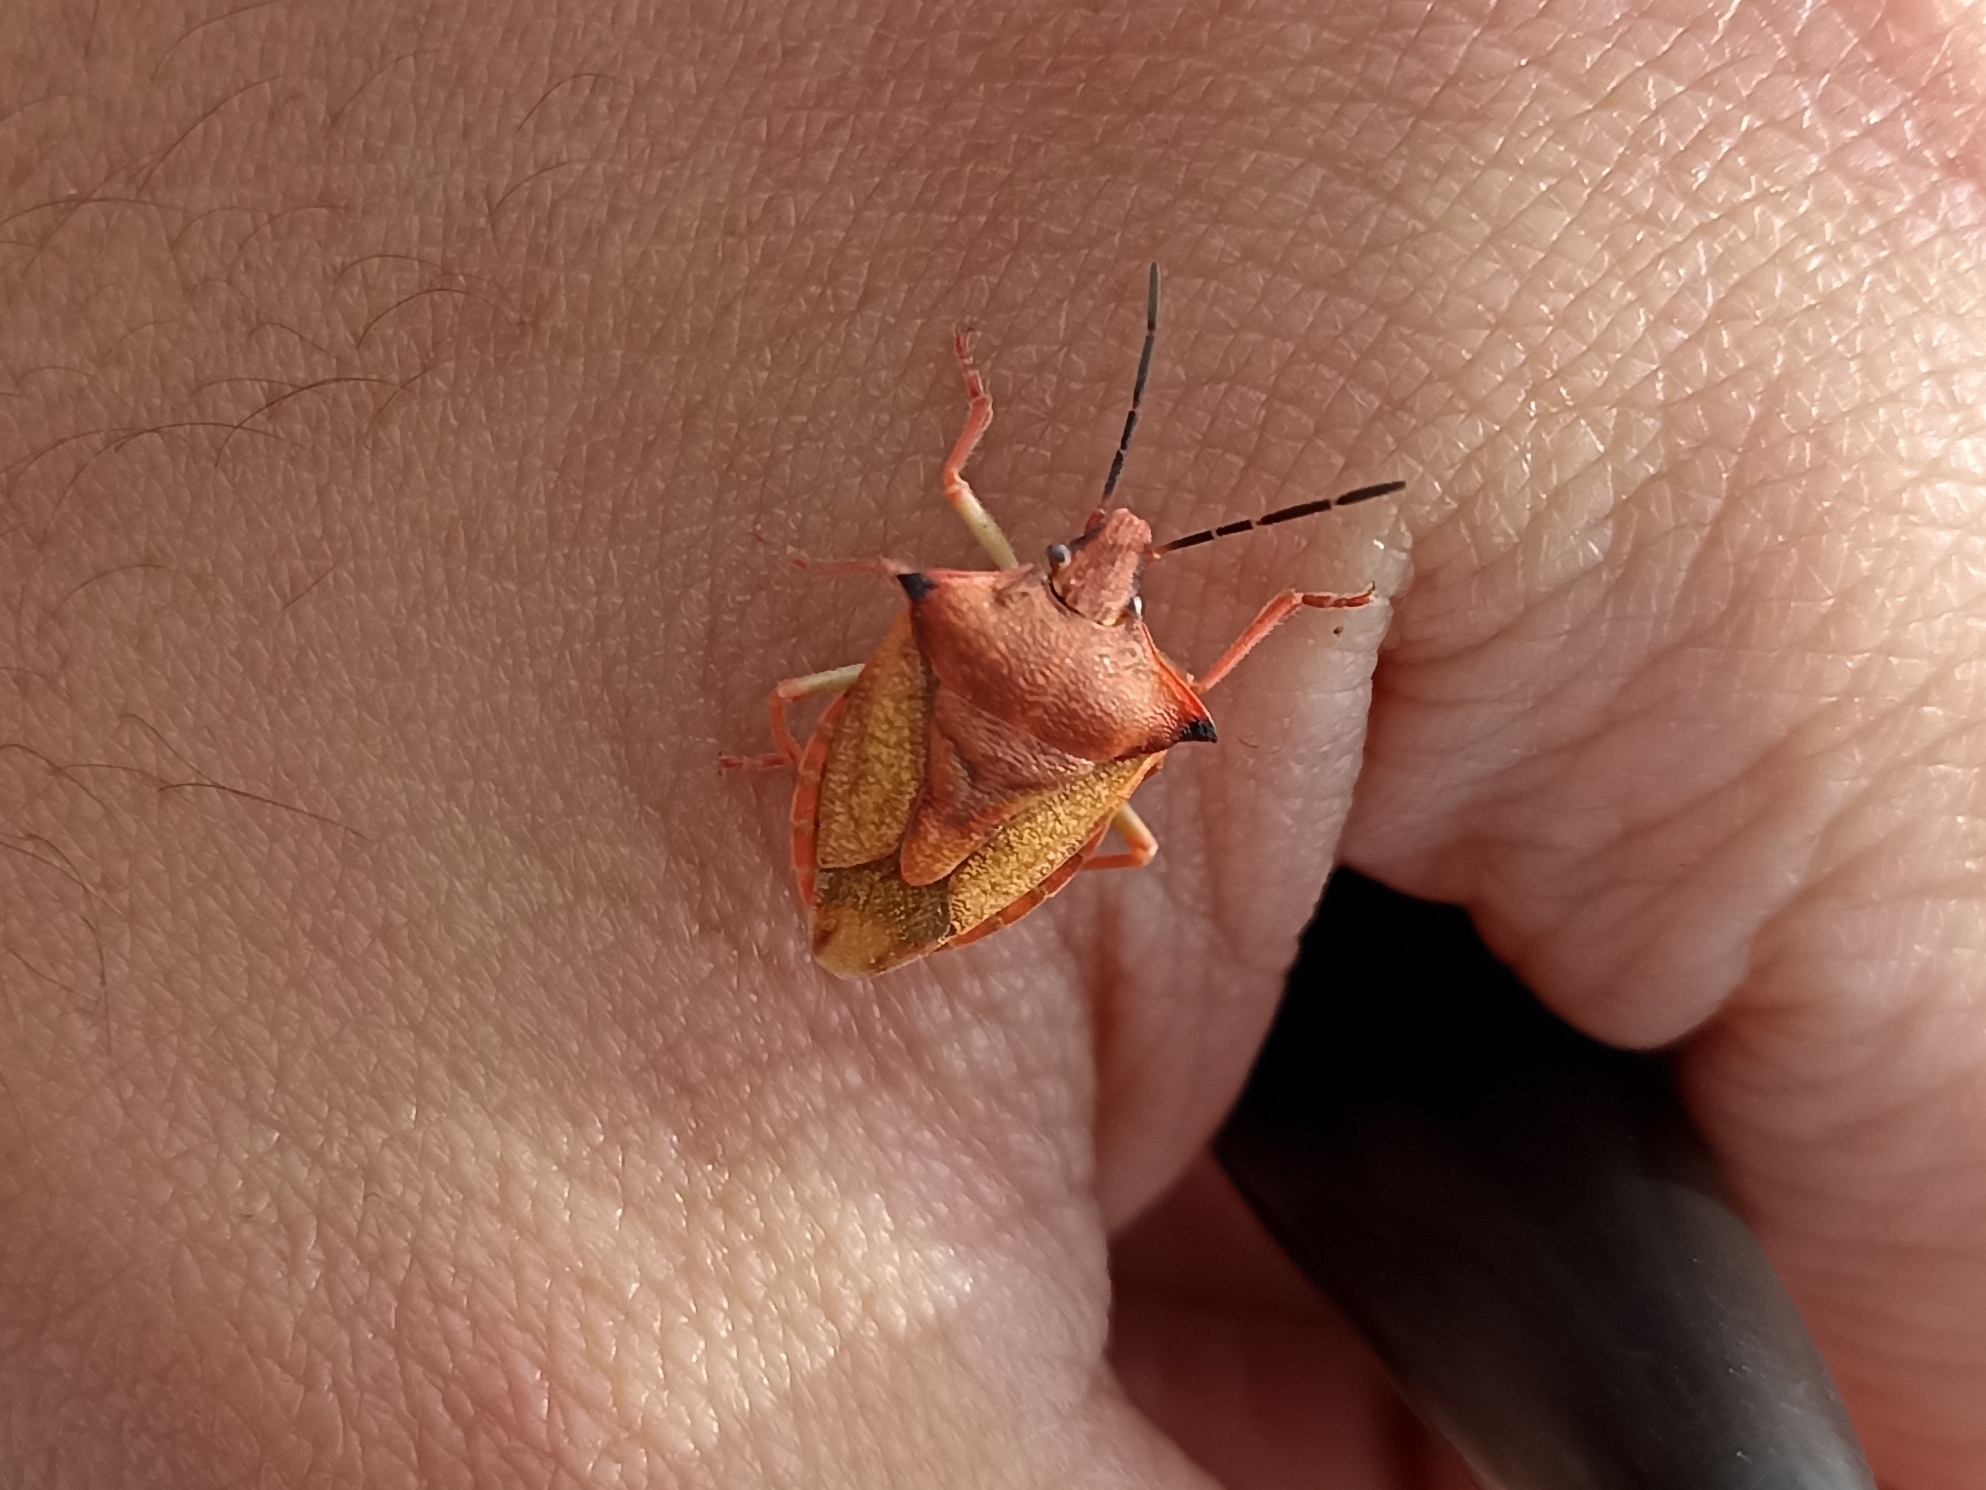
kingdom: Animalia
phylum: Arthropoda
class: Insecta
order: Hemiptera
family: Pentatomidae
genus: Carpocoris
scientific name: Carpocoris mediterraneus
